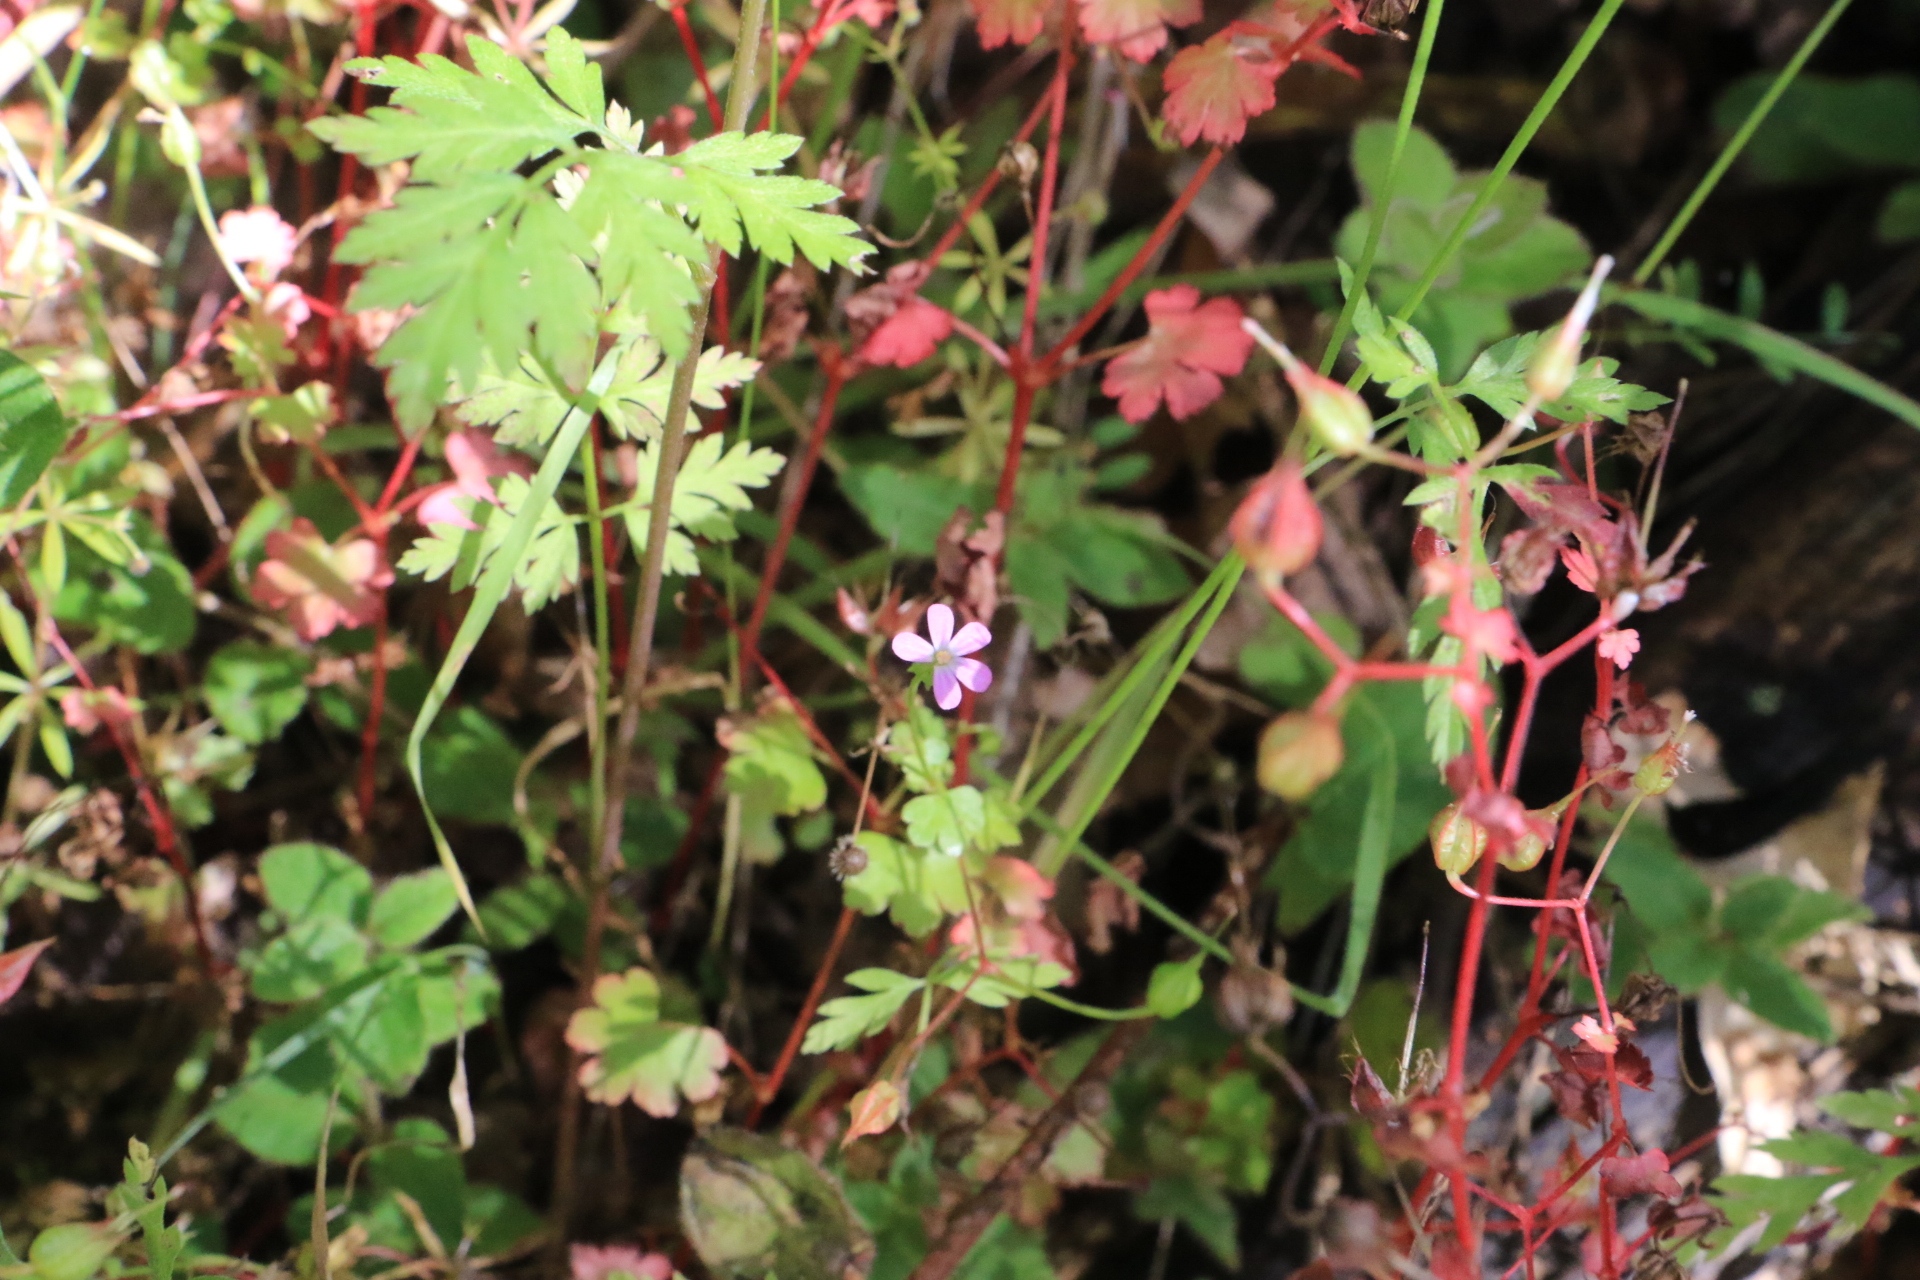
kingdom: Plantae
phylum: Tracheophyta
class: Magnoliopsida
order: Geraniales
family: Geraniaceae
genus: Geranium
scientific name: Geranium lucidum
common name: Shining crane's-bill
